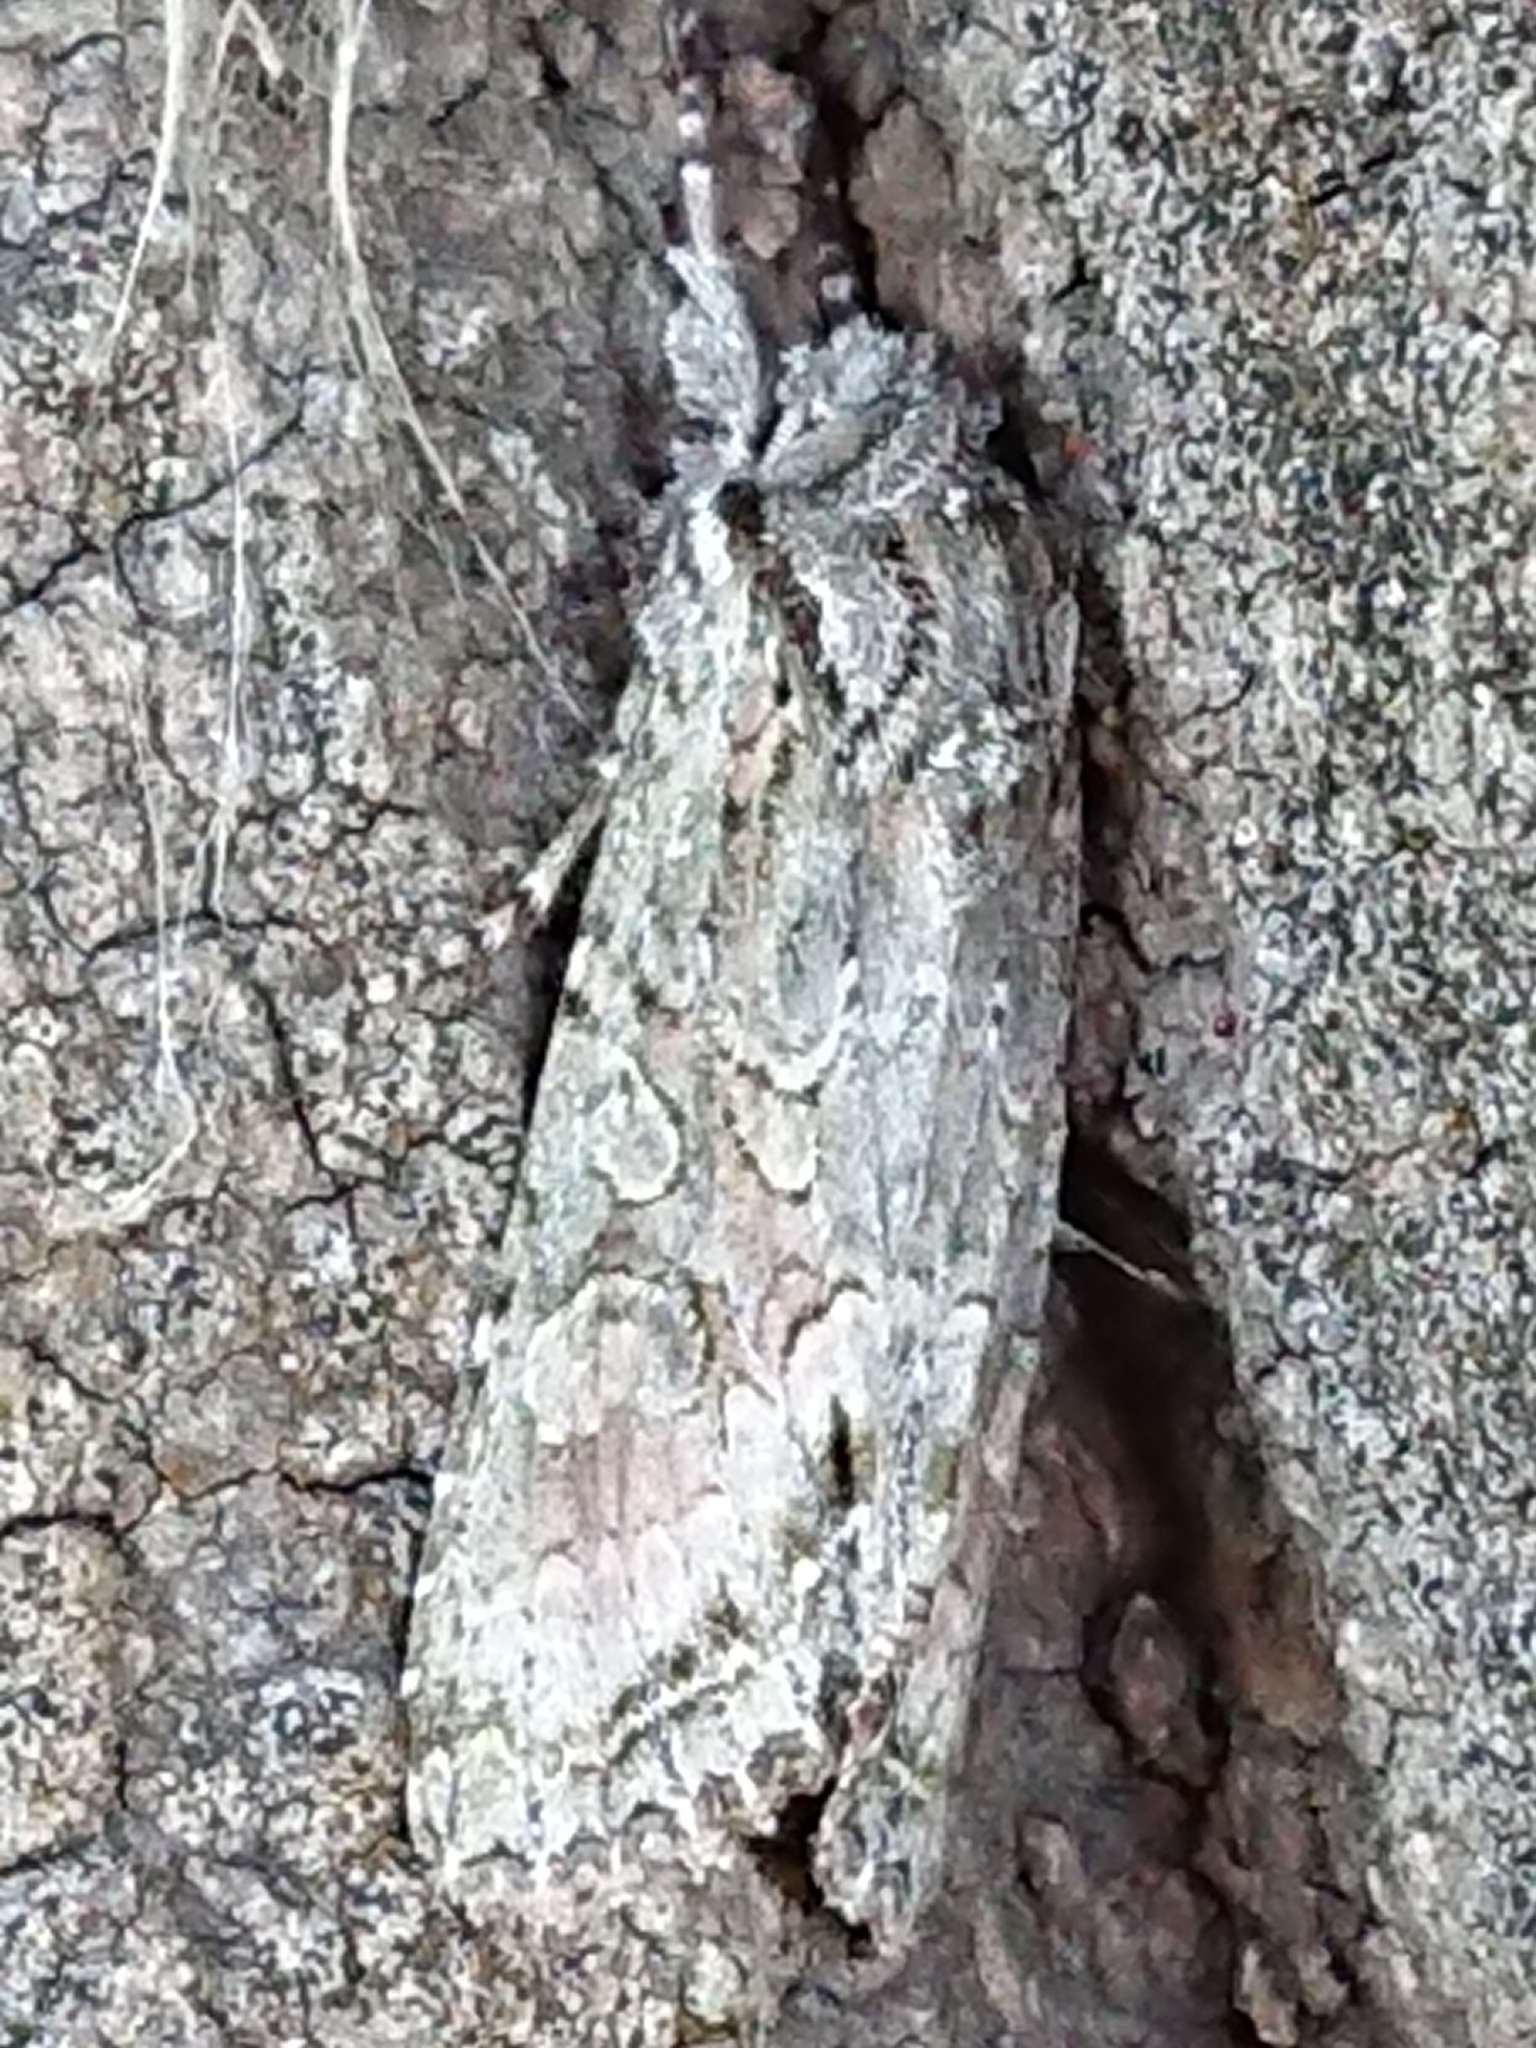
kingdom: Animalia
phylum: Arthropoda
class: Insecta
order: Lepidoptera
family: Noctuidae
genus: Ichneutica
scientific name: Ichneutica mutans
